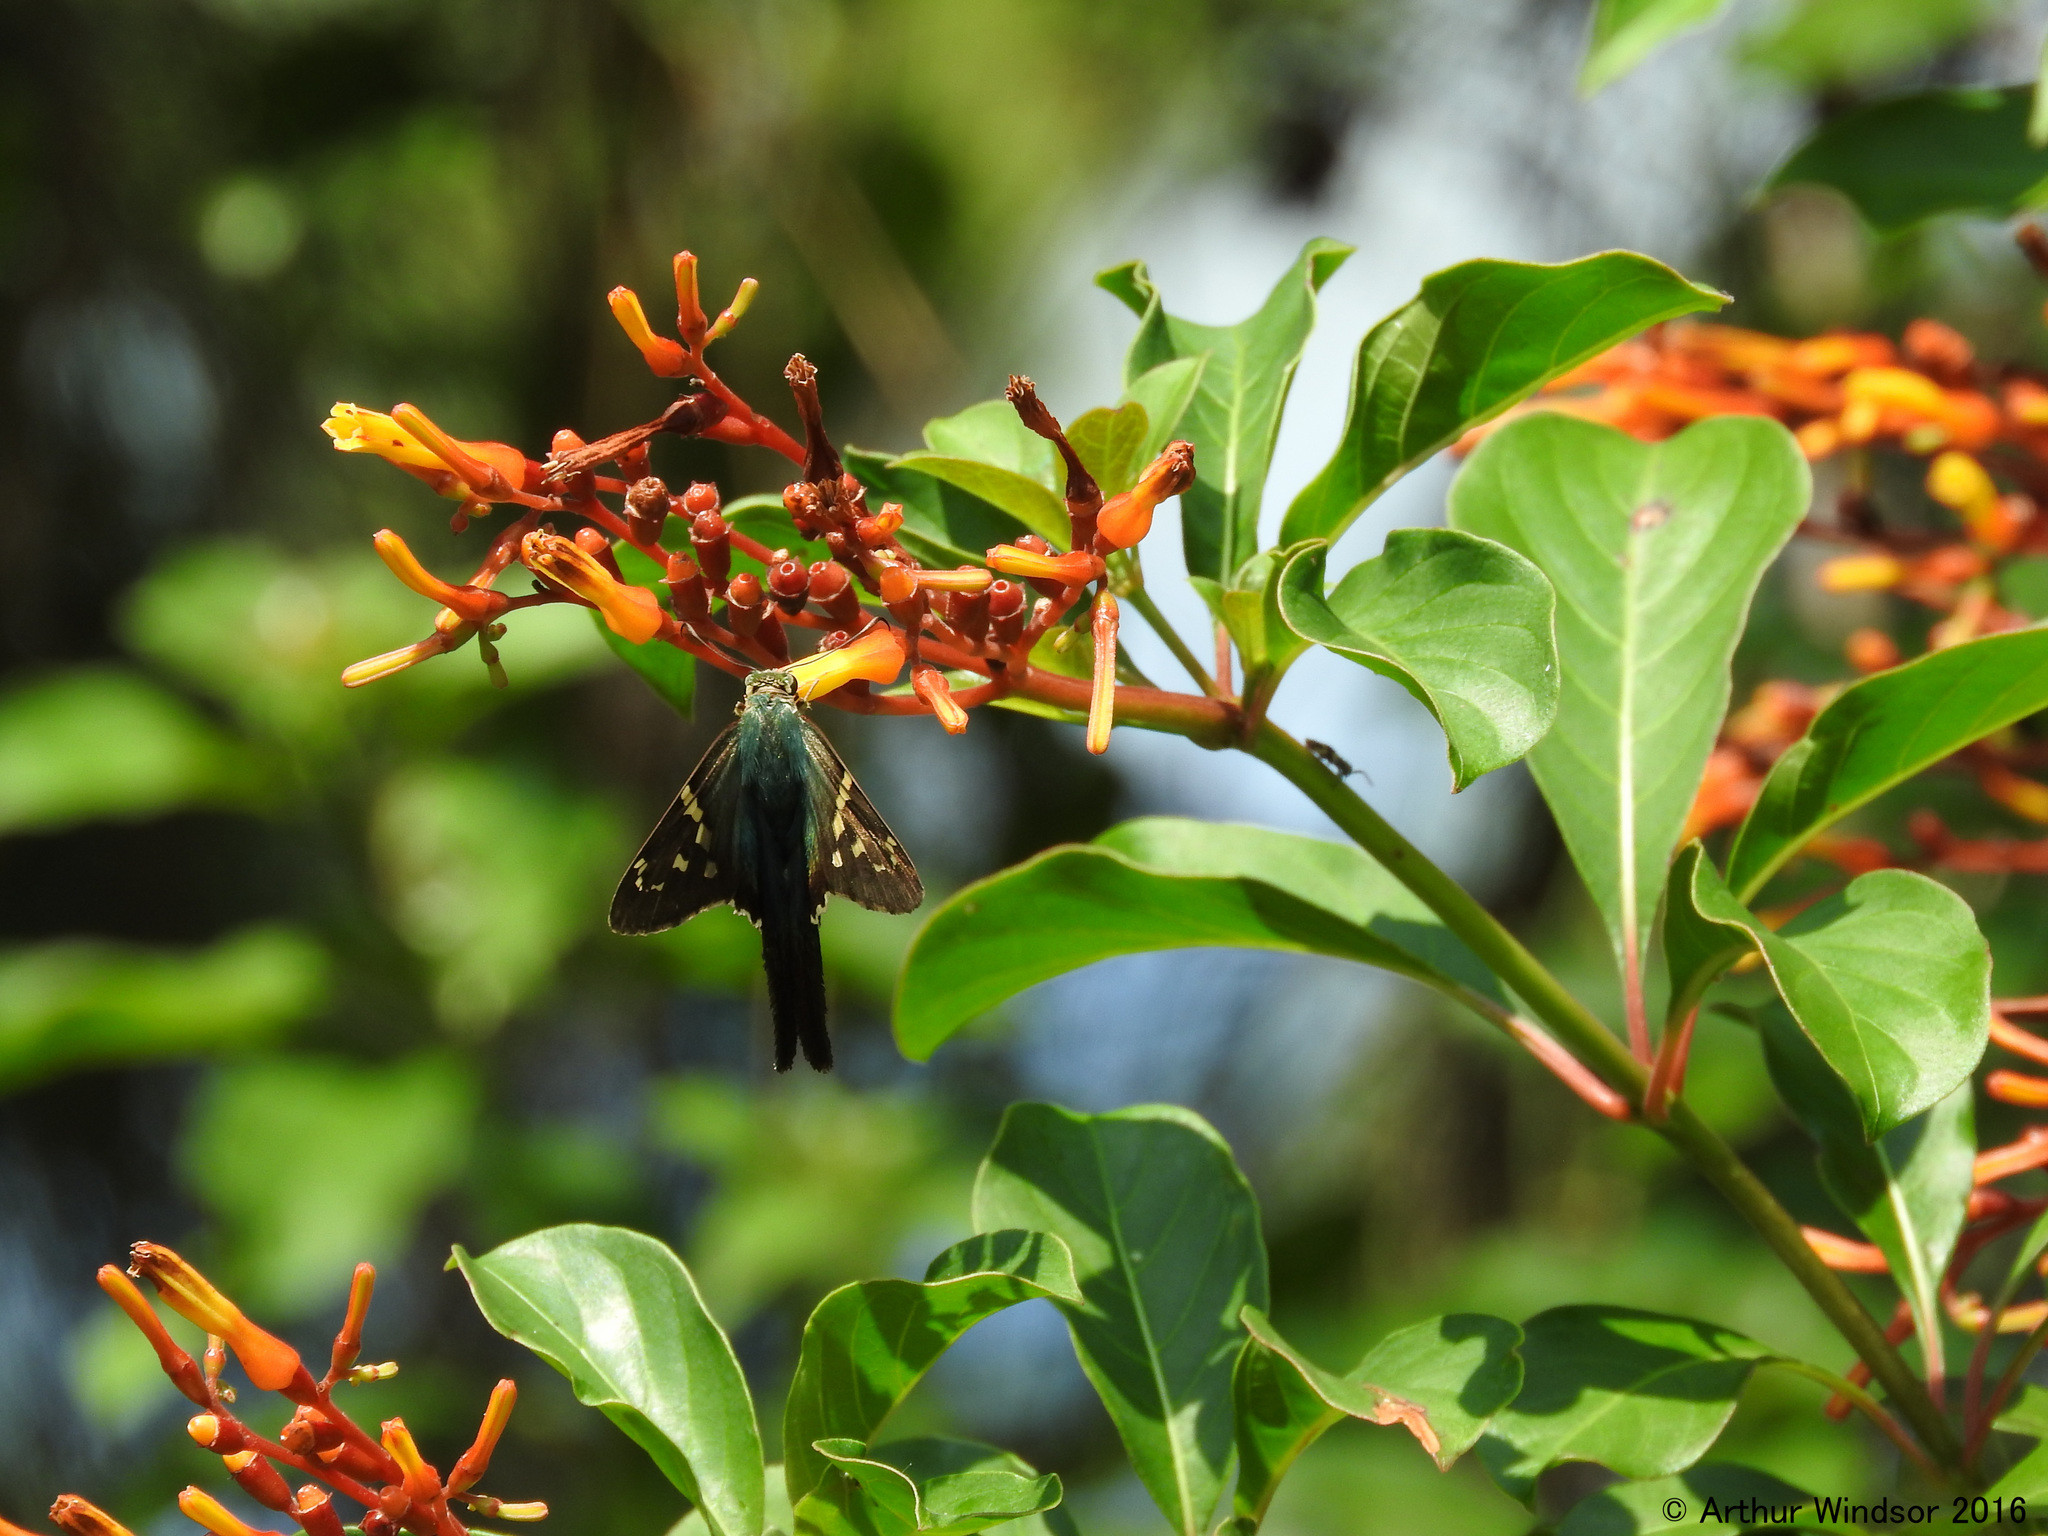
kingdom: Animalia
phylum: Arthropoda
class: Insecta
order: Lepidoptera
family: Hesperiidae
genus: Urbanus
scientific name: Urbanus proteus
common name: Long-tailed skipper
